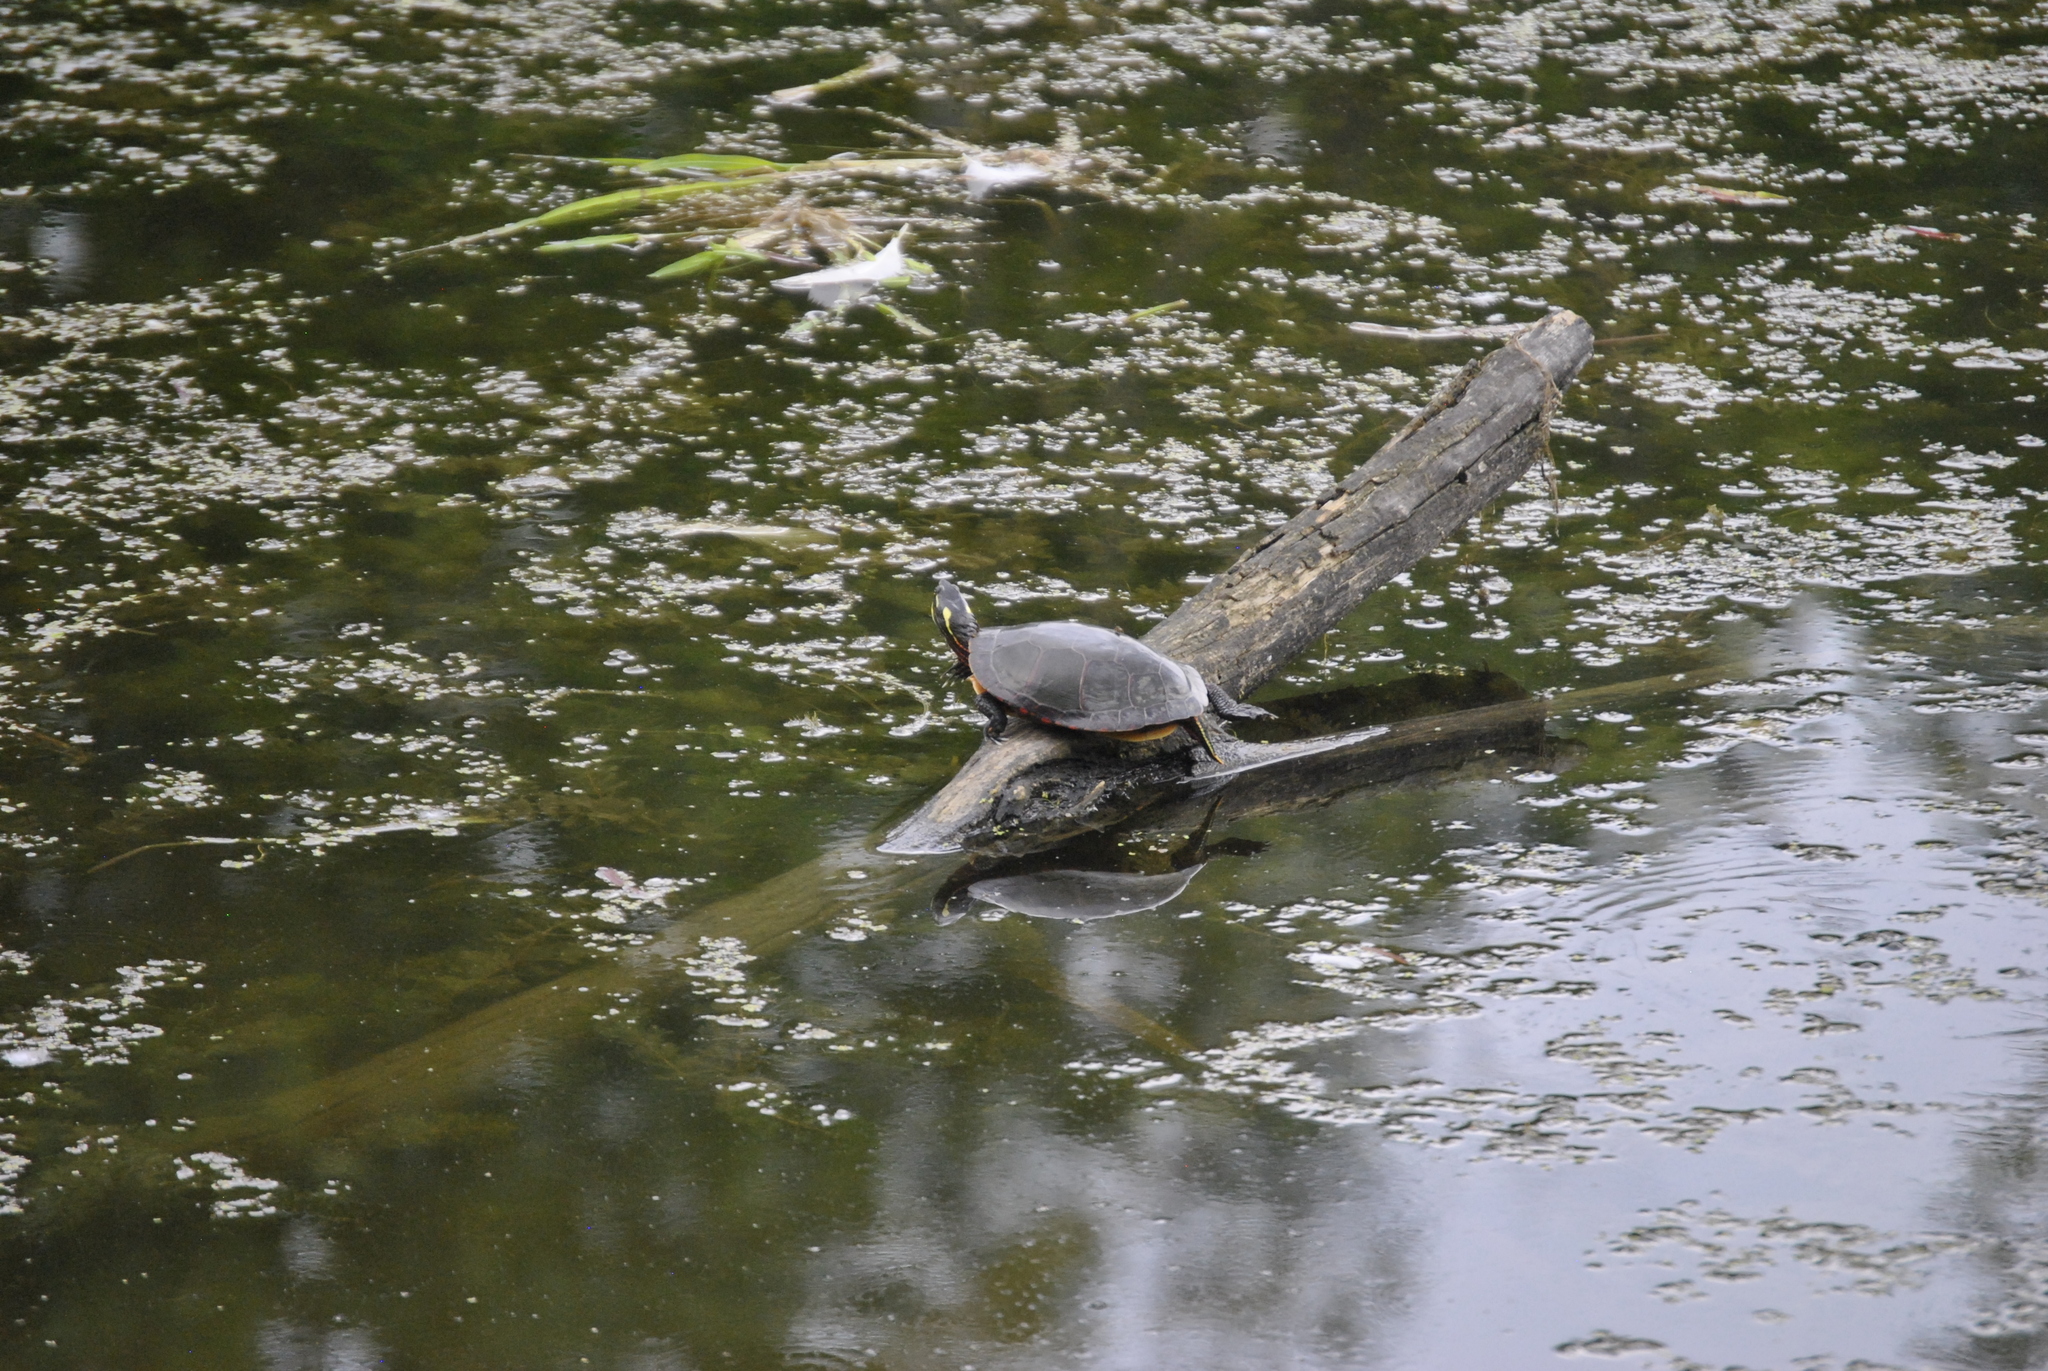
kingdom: Animalia
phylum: Chordata
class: Testudines
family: Emydidae
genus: Chrysemys
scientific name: Chrysemys picta
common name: Painted turtle
